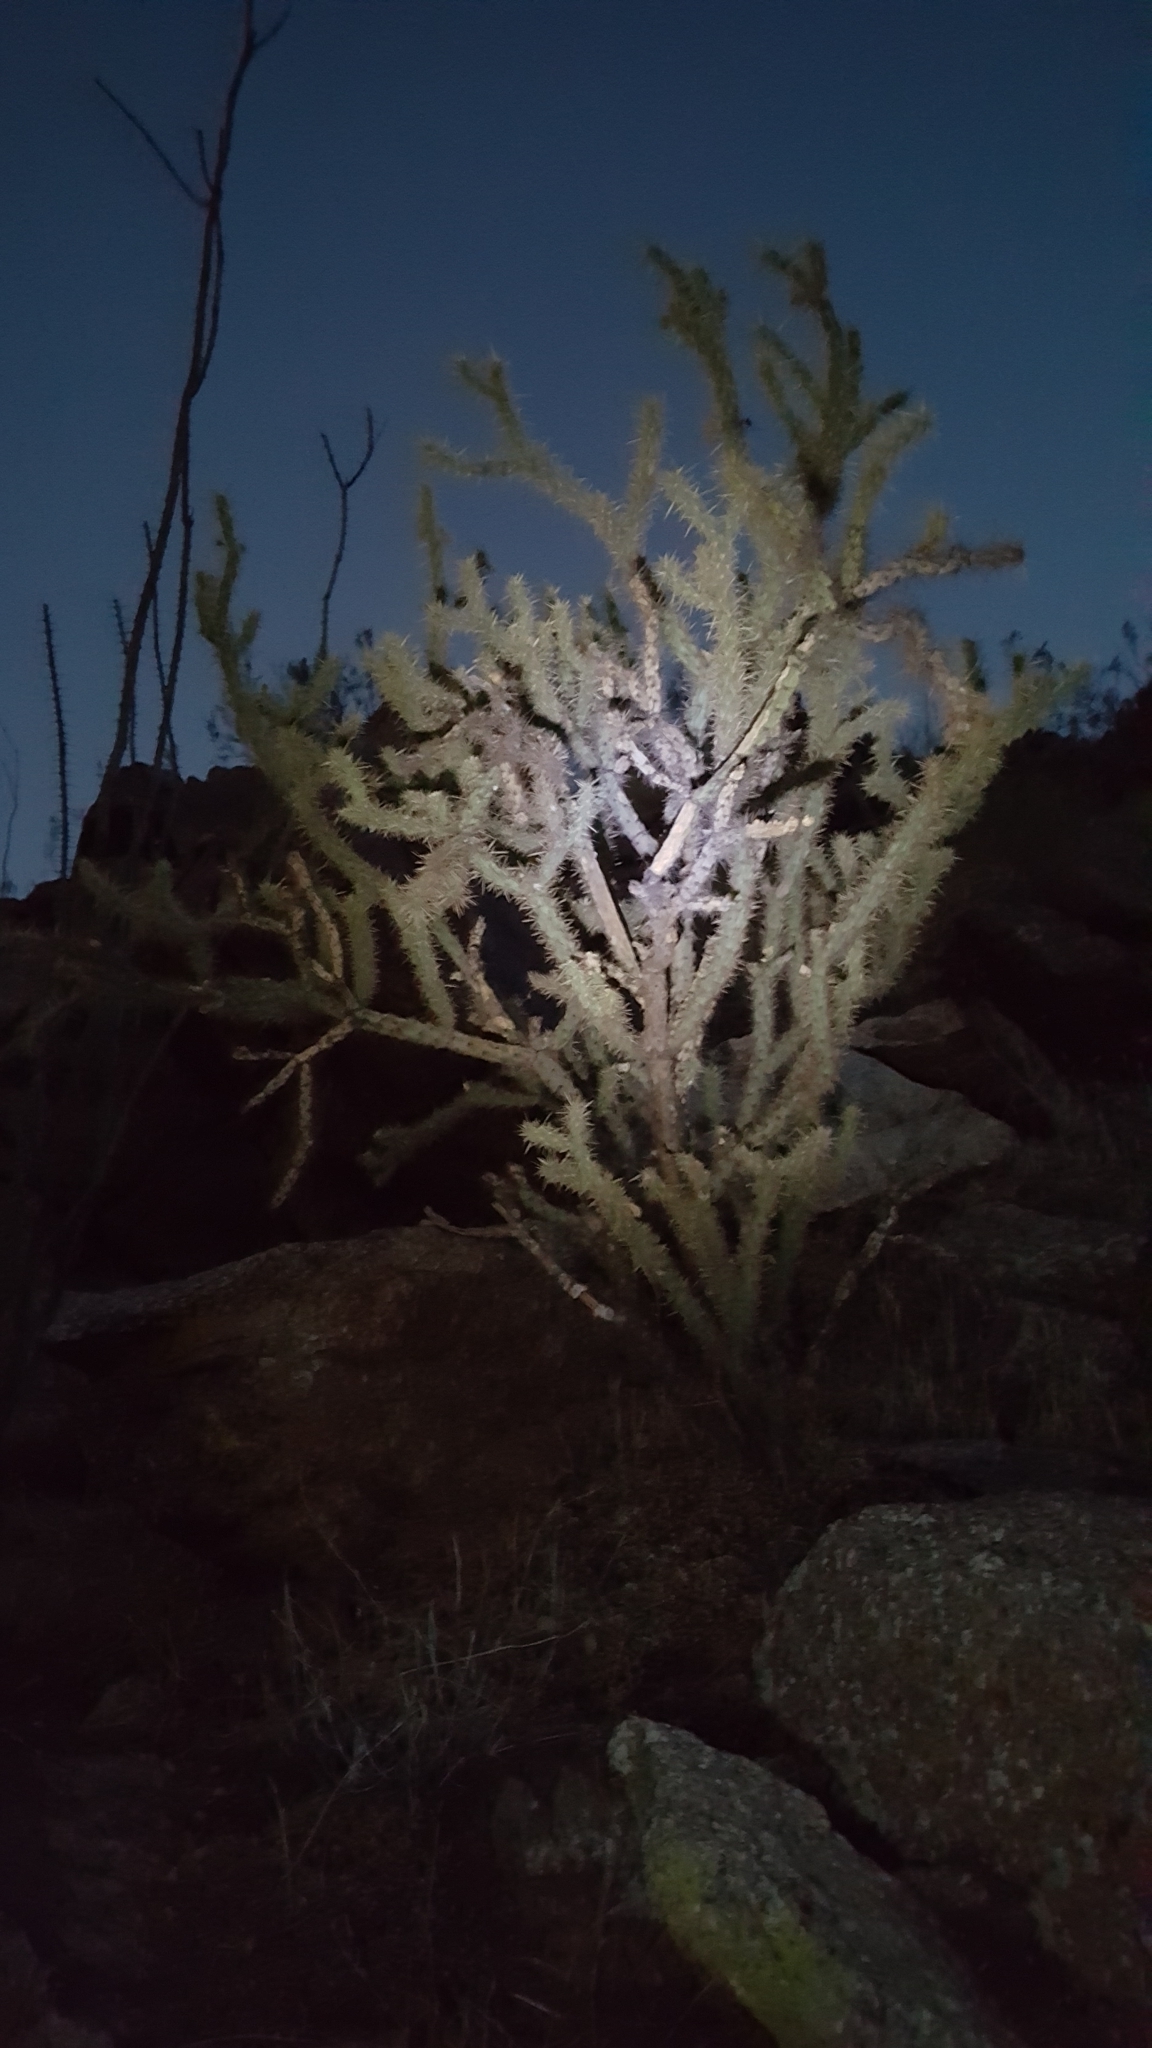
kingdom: Plantae
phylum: Tracheophyta
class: Magnoliopsida
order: Caryophyllales
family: Cactaceae
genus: Cylindropuntia
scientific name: Cylindropuntia acanthocarpa
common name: Buckhorn cholla
